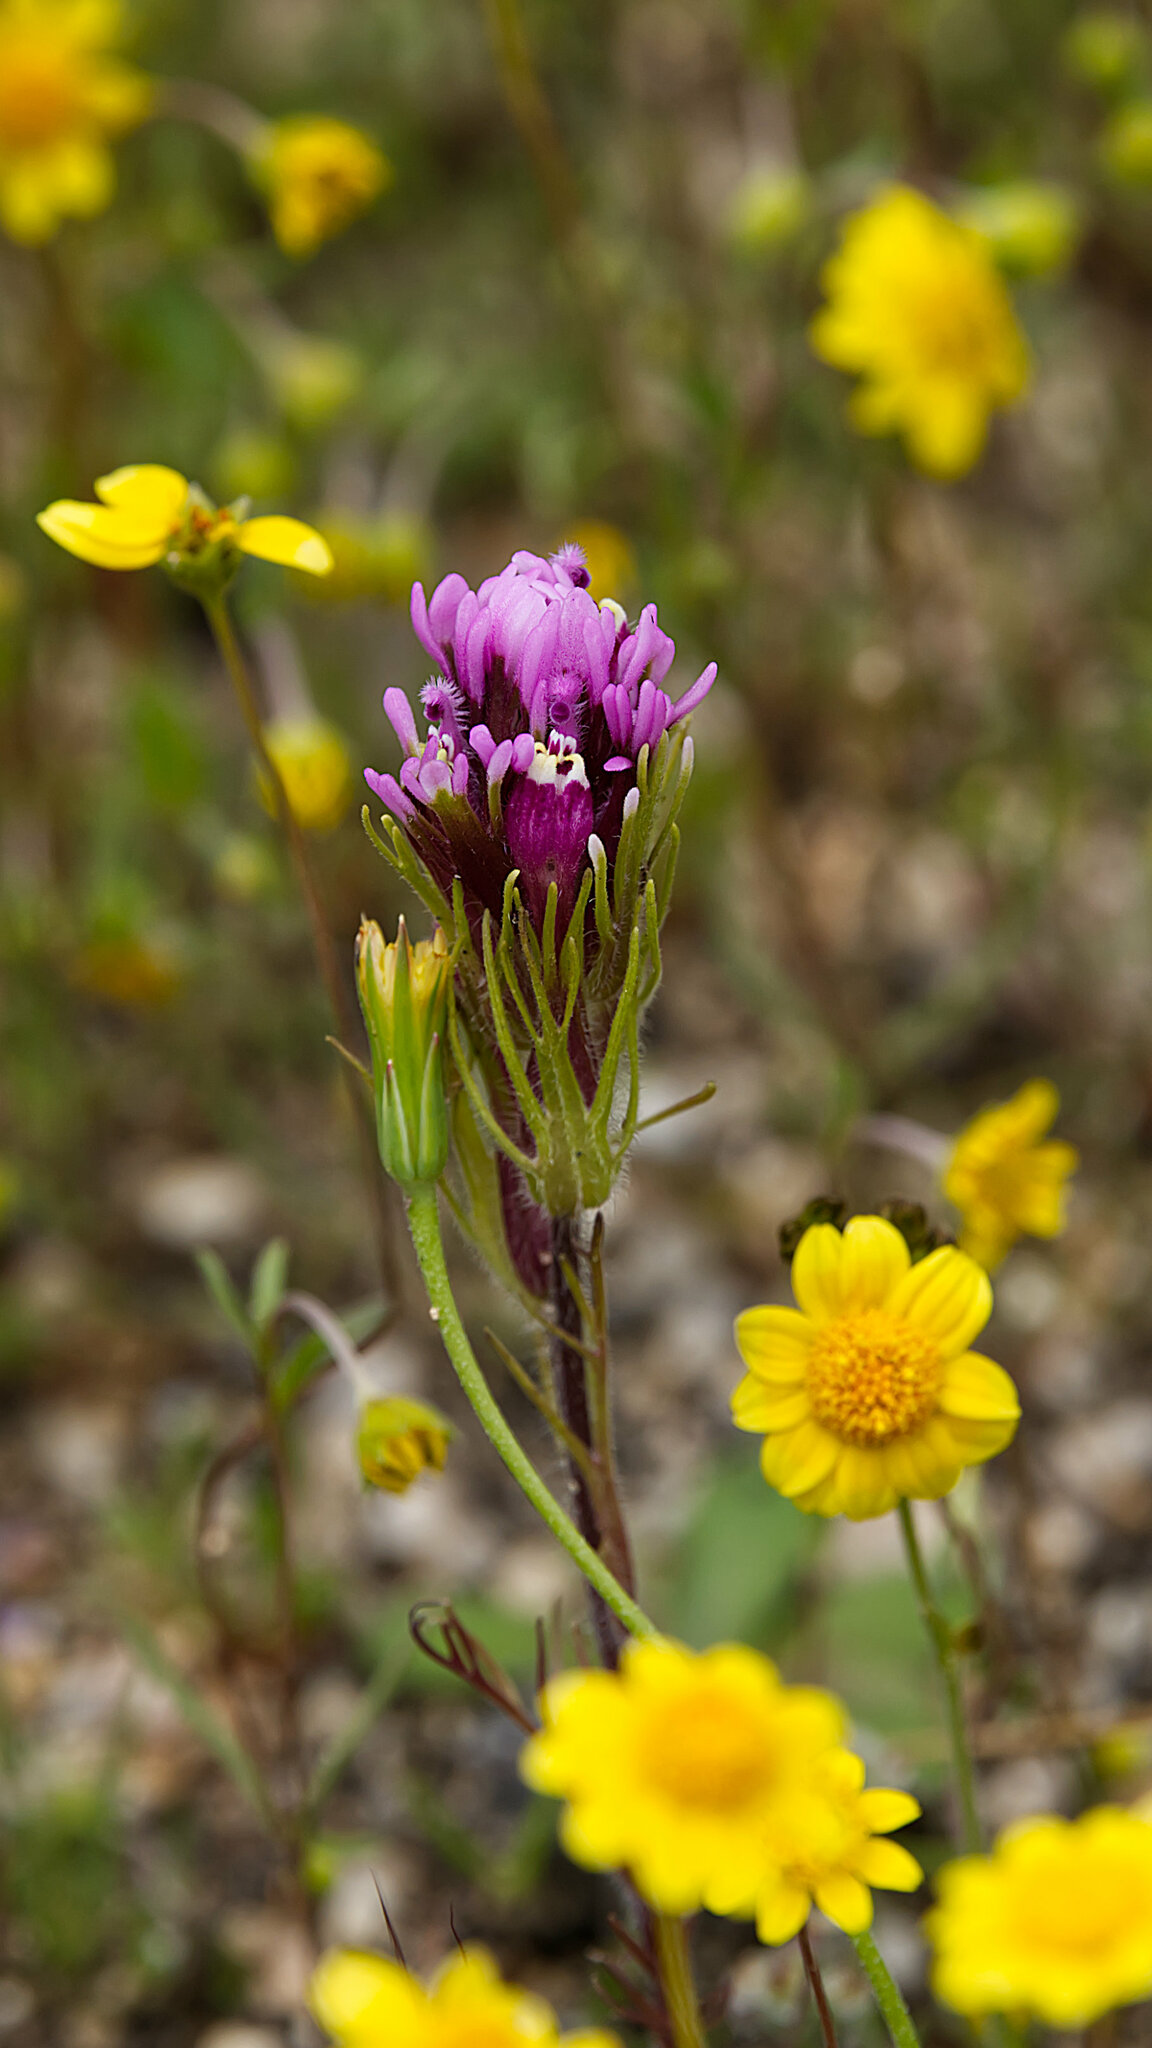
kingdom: Plantae
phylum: Tracheophyta
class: Magnoliopsida
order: Lamiales
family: Orobanchaceae
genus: Castilleja
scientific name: Castilleja exserta
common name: Purple owl-clover
